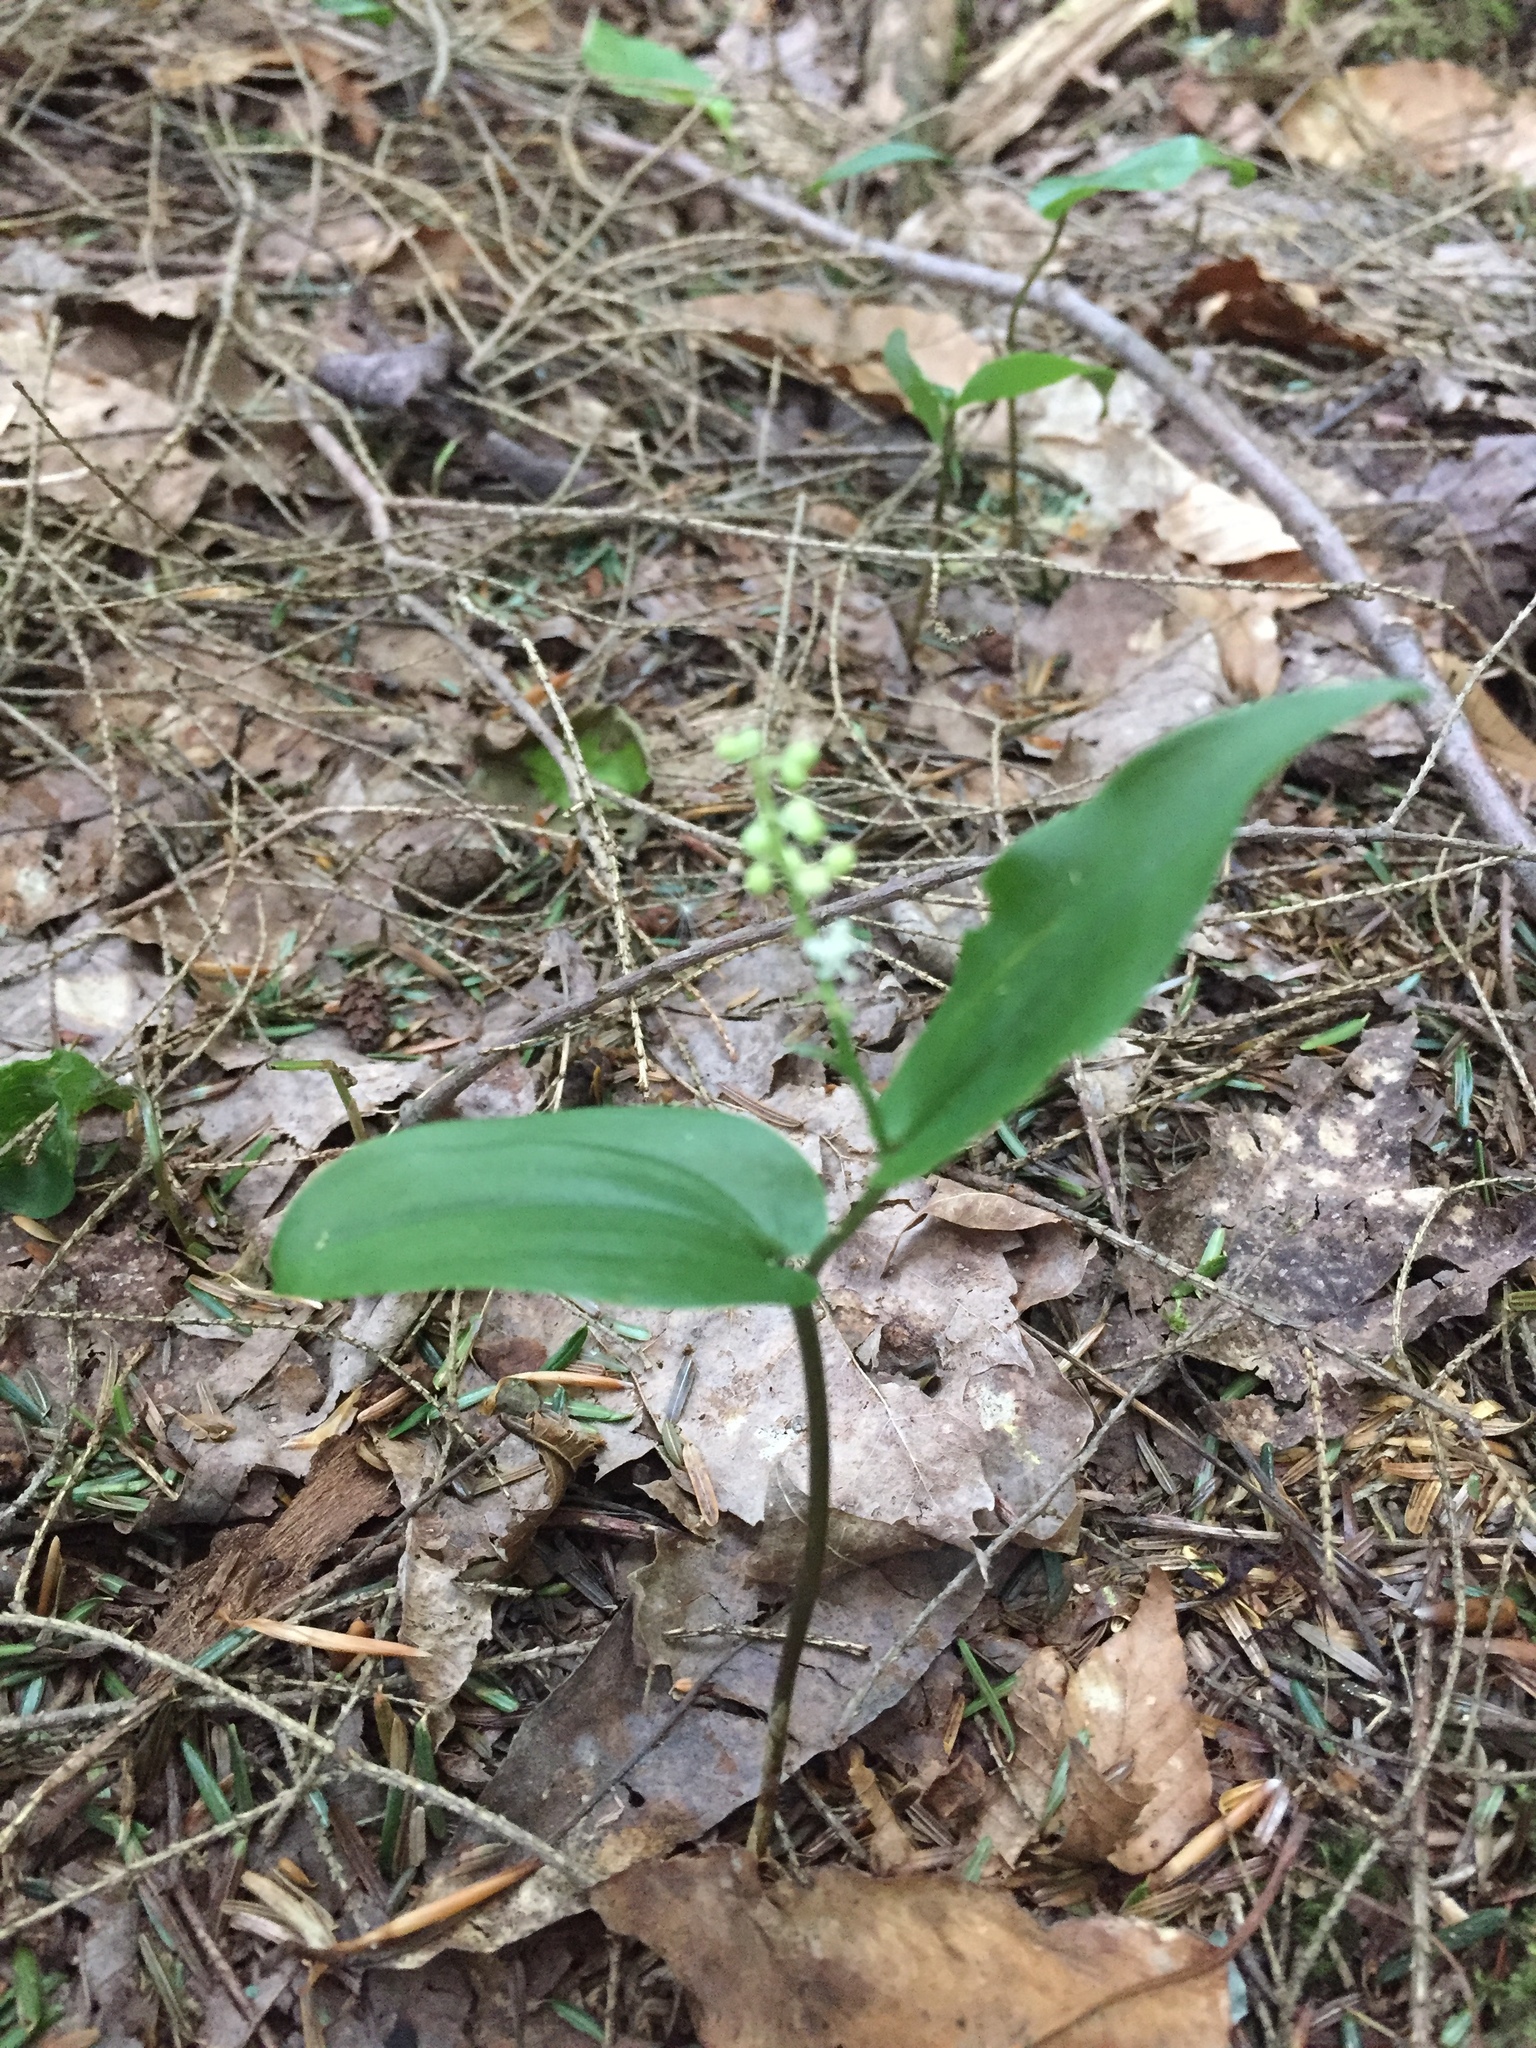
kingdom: Plantae
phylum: Tracheophyta
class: Liliopsida
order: Asparagales
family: Asparagaceae
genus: Maianthemum
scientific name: Maianthemum canadense
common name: False lily-of-the-valley
